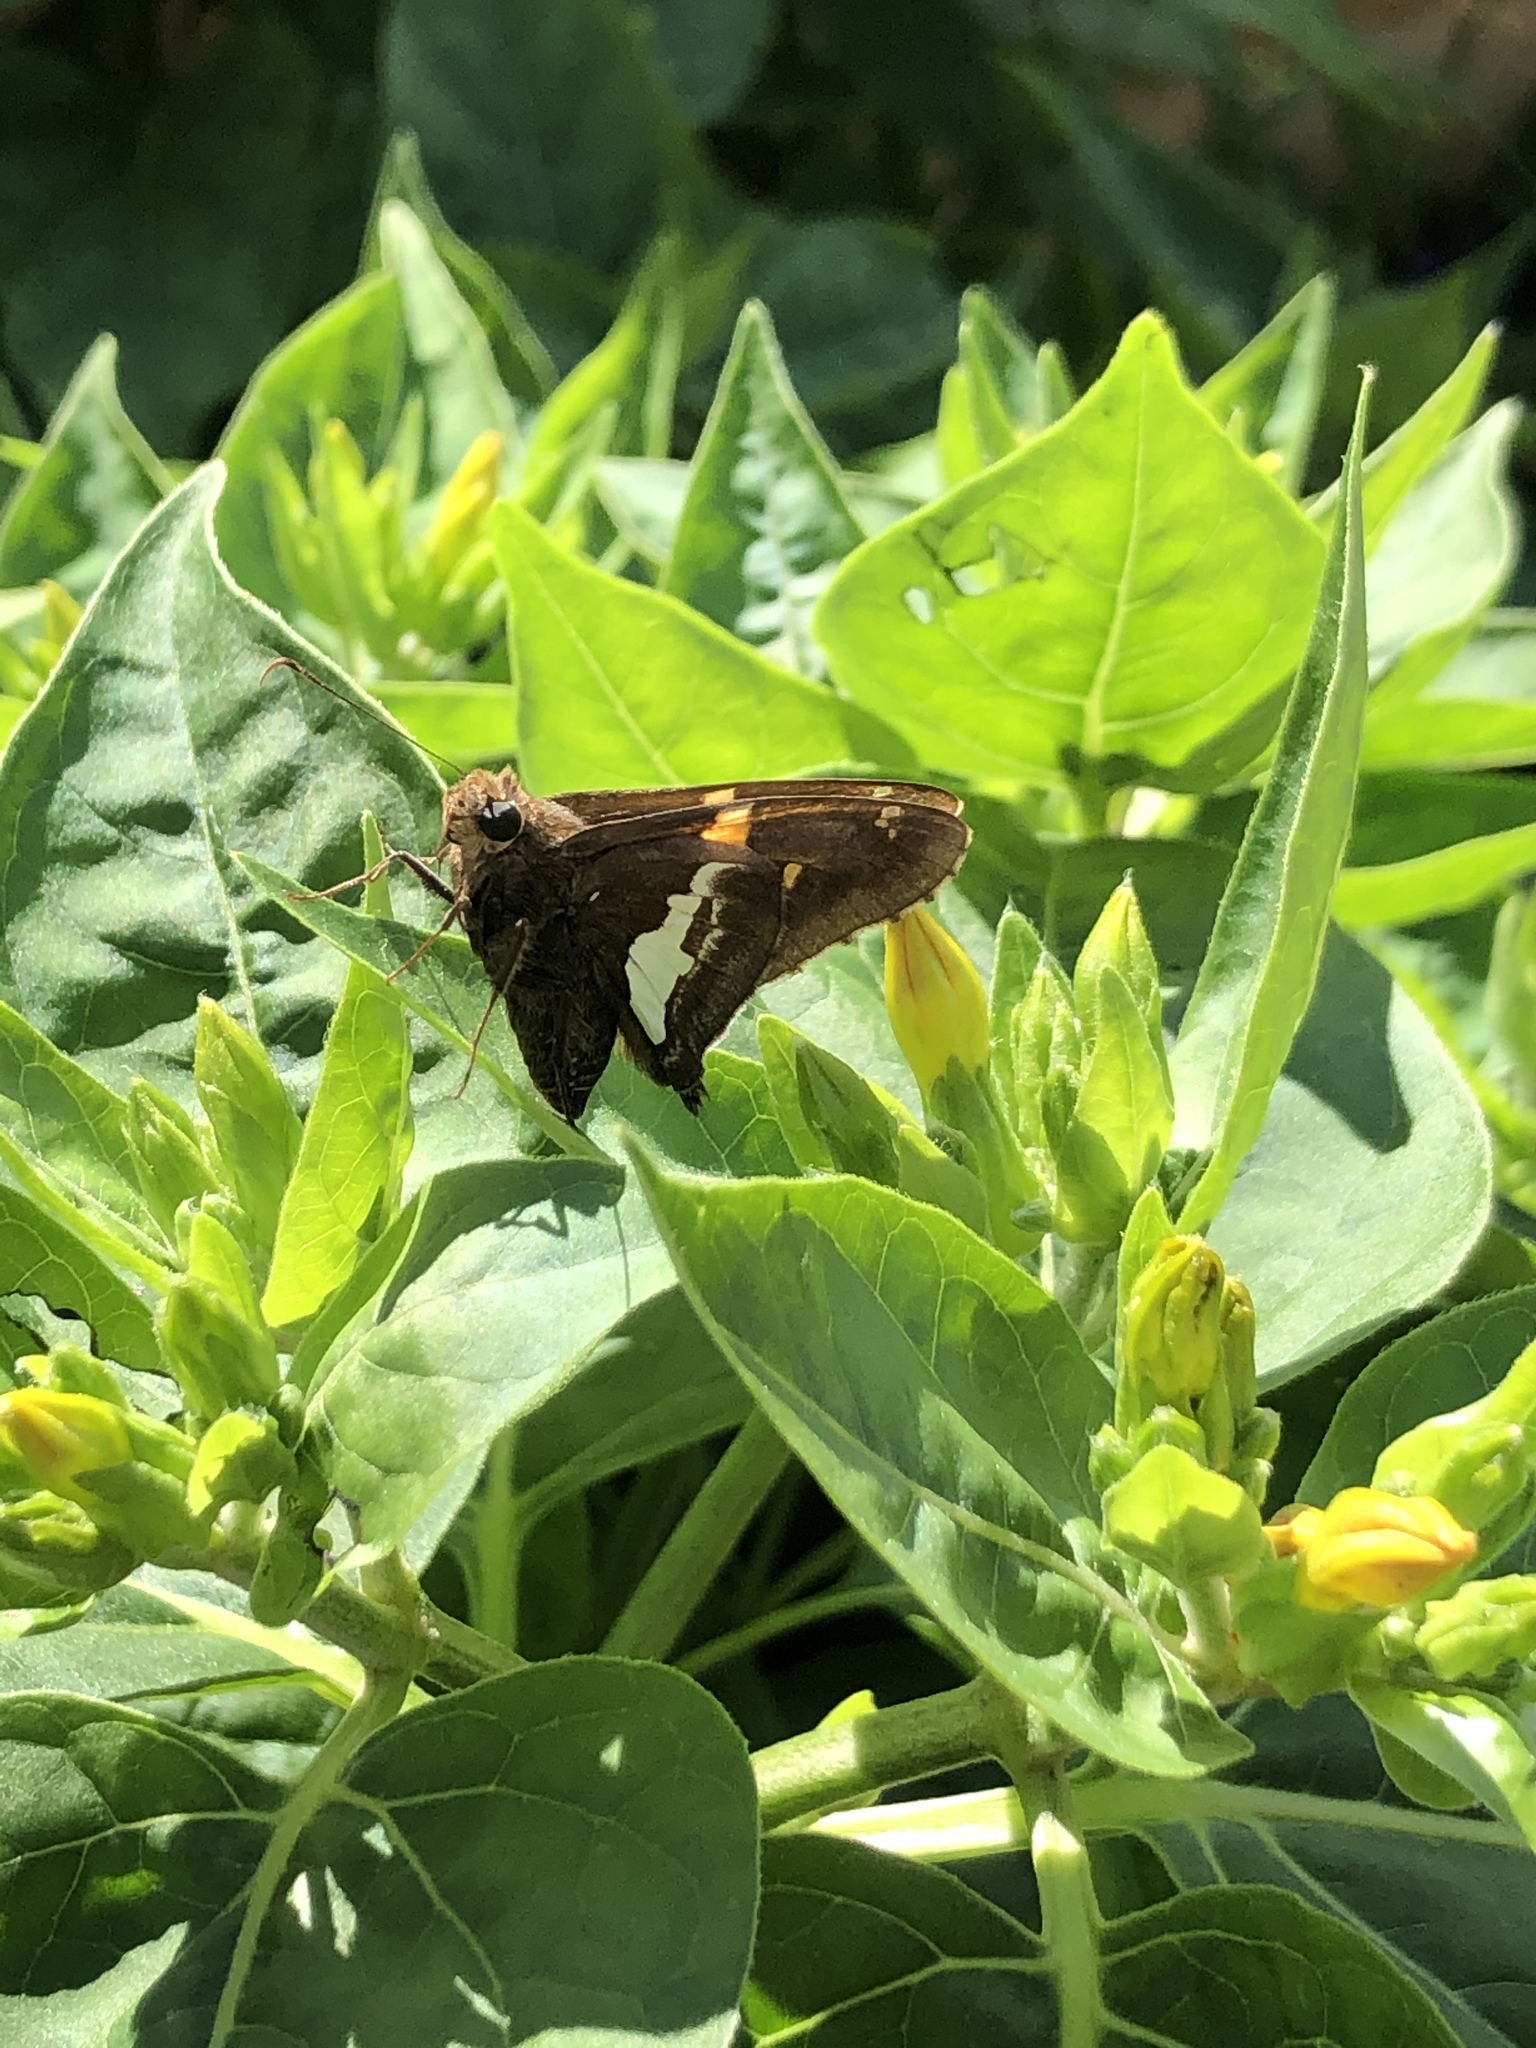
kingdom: Animalia
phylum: Arthropoda
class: Insecta
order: Lepidoptera
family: Hesperiidae
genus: Epargyreus
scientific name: Epargyreus clarus
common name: Silver-spotted skipper
